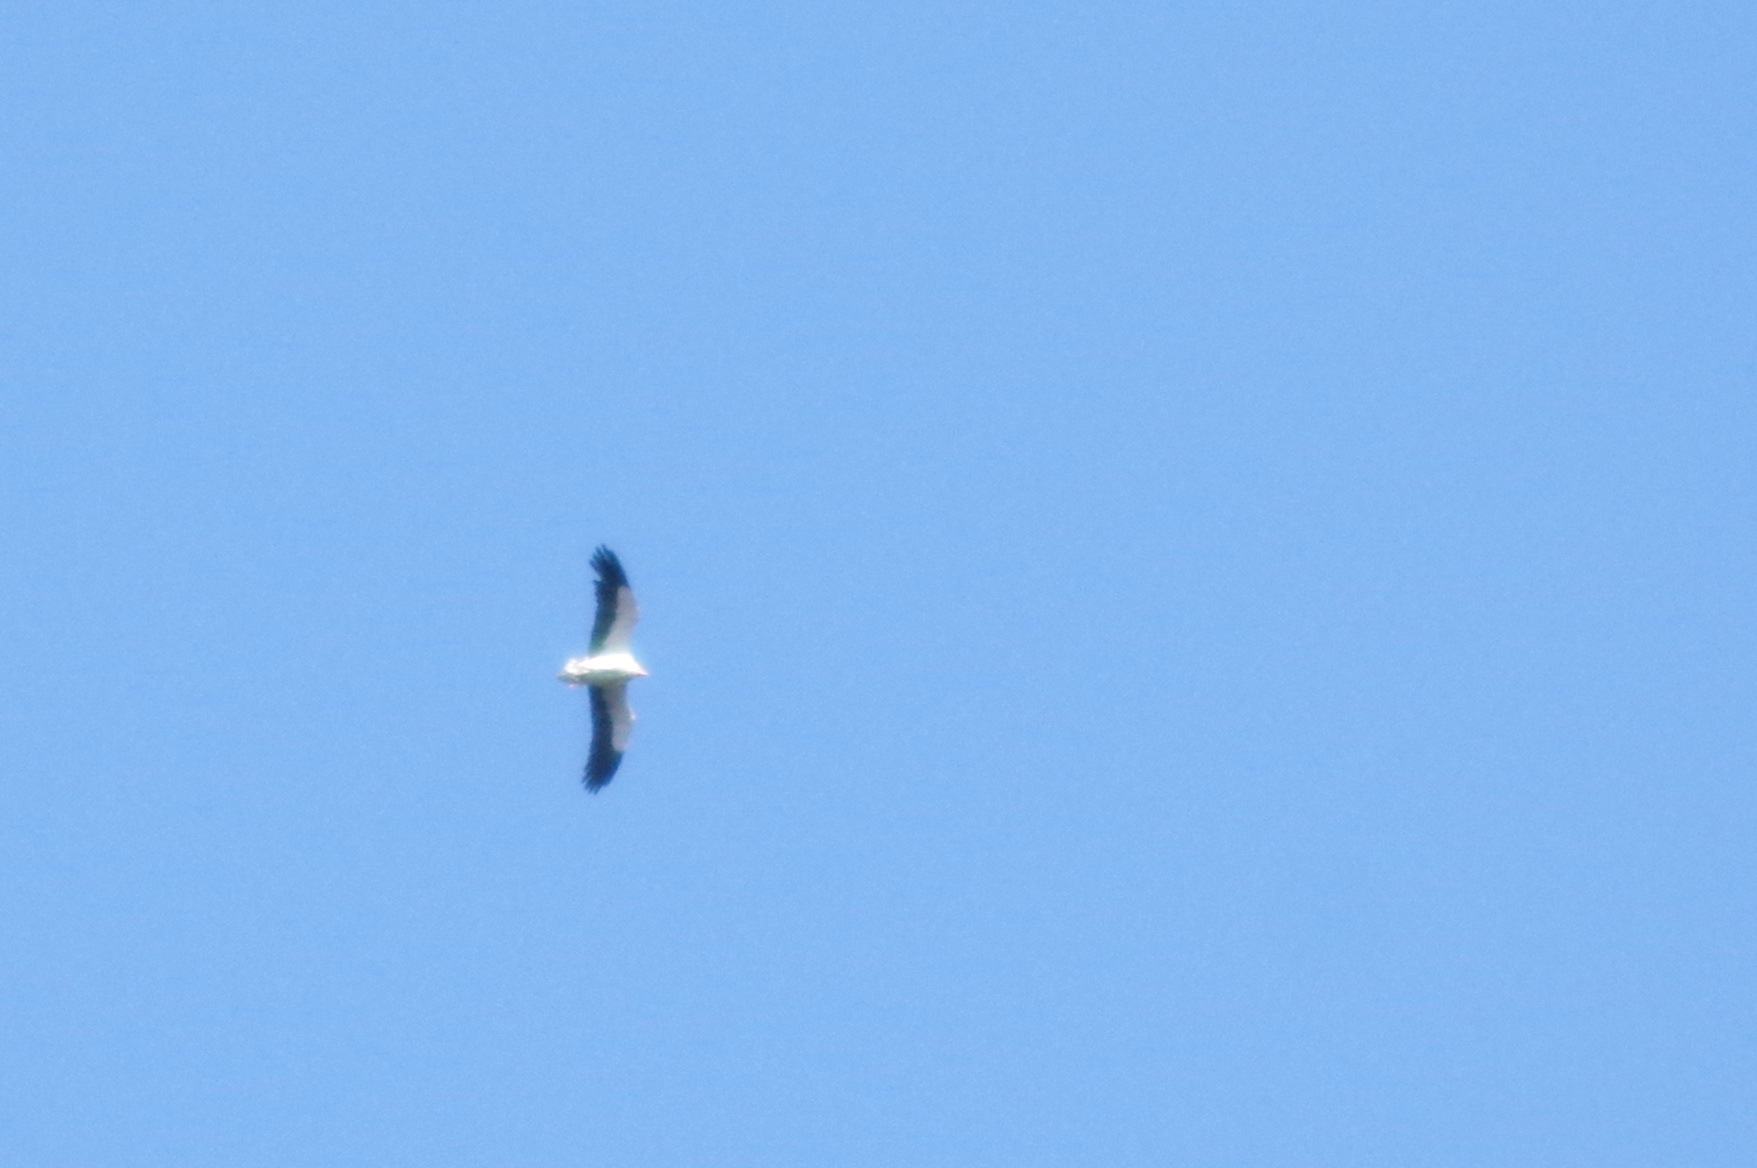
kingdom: Animalia
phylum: Chordata
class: Aves
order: Accipitriformes
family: Accipitridae
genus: Neophron
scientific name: Neophron percnopterus
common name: Egyptian vulture
